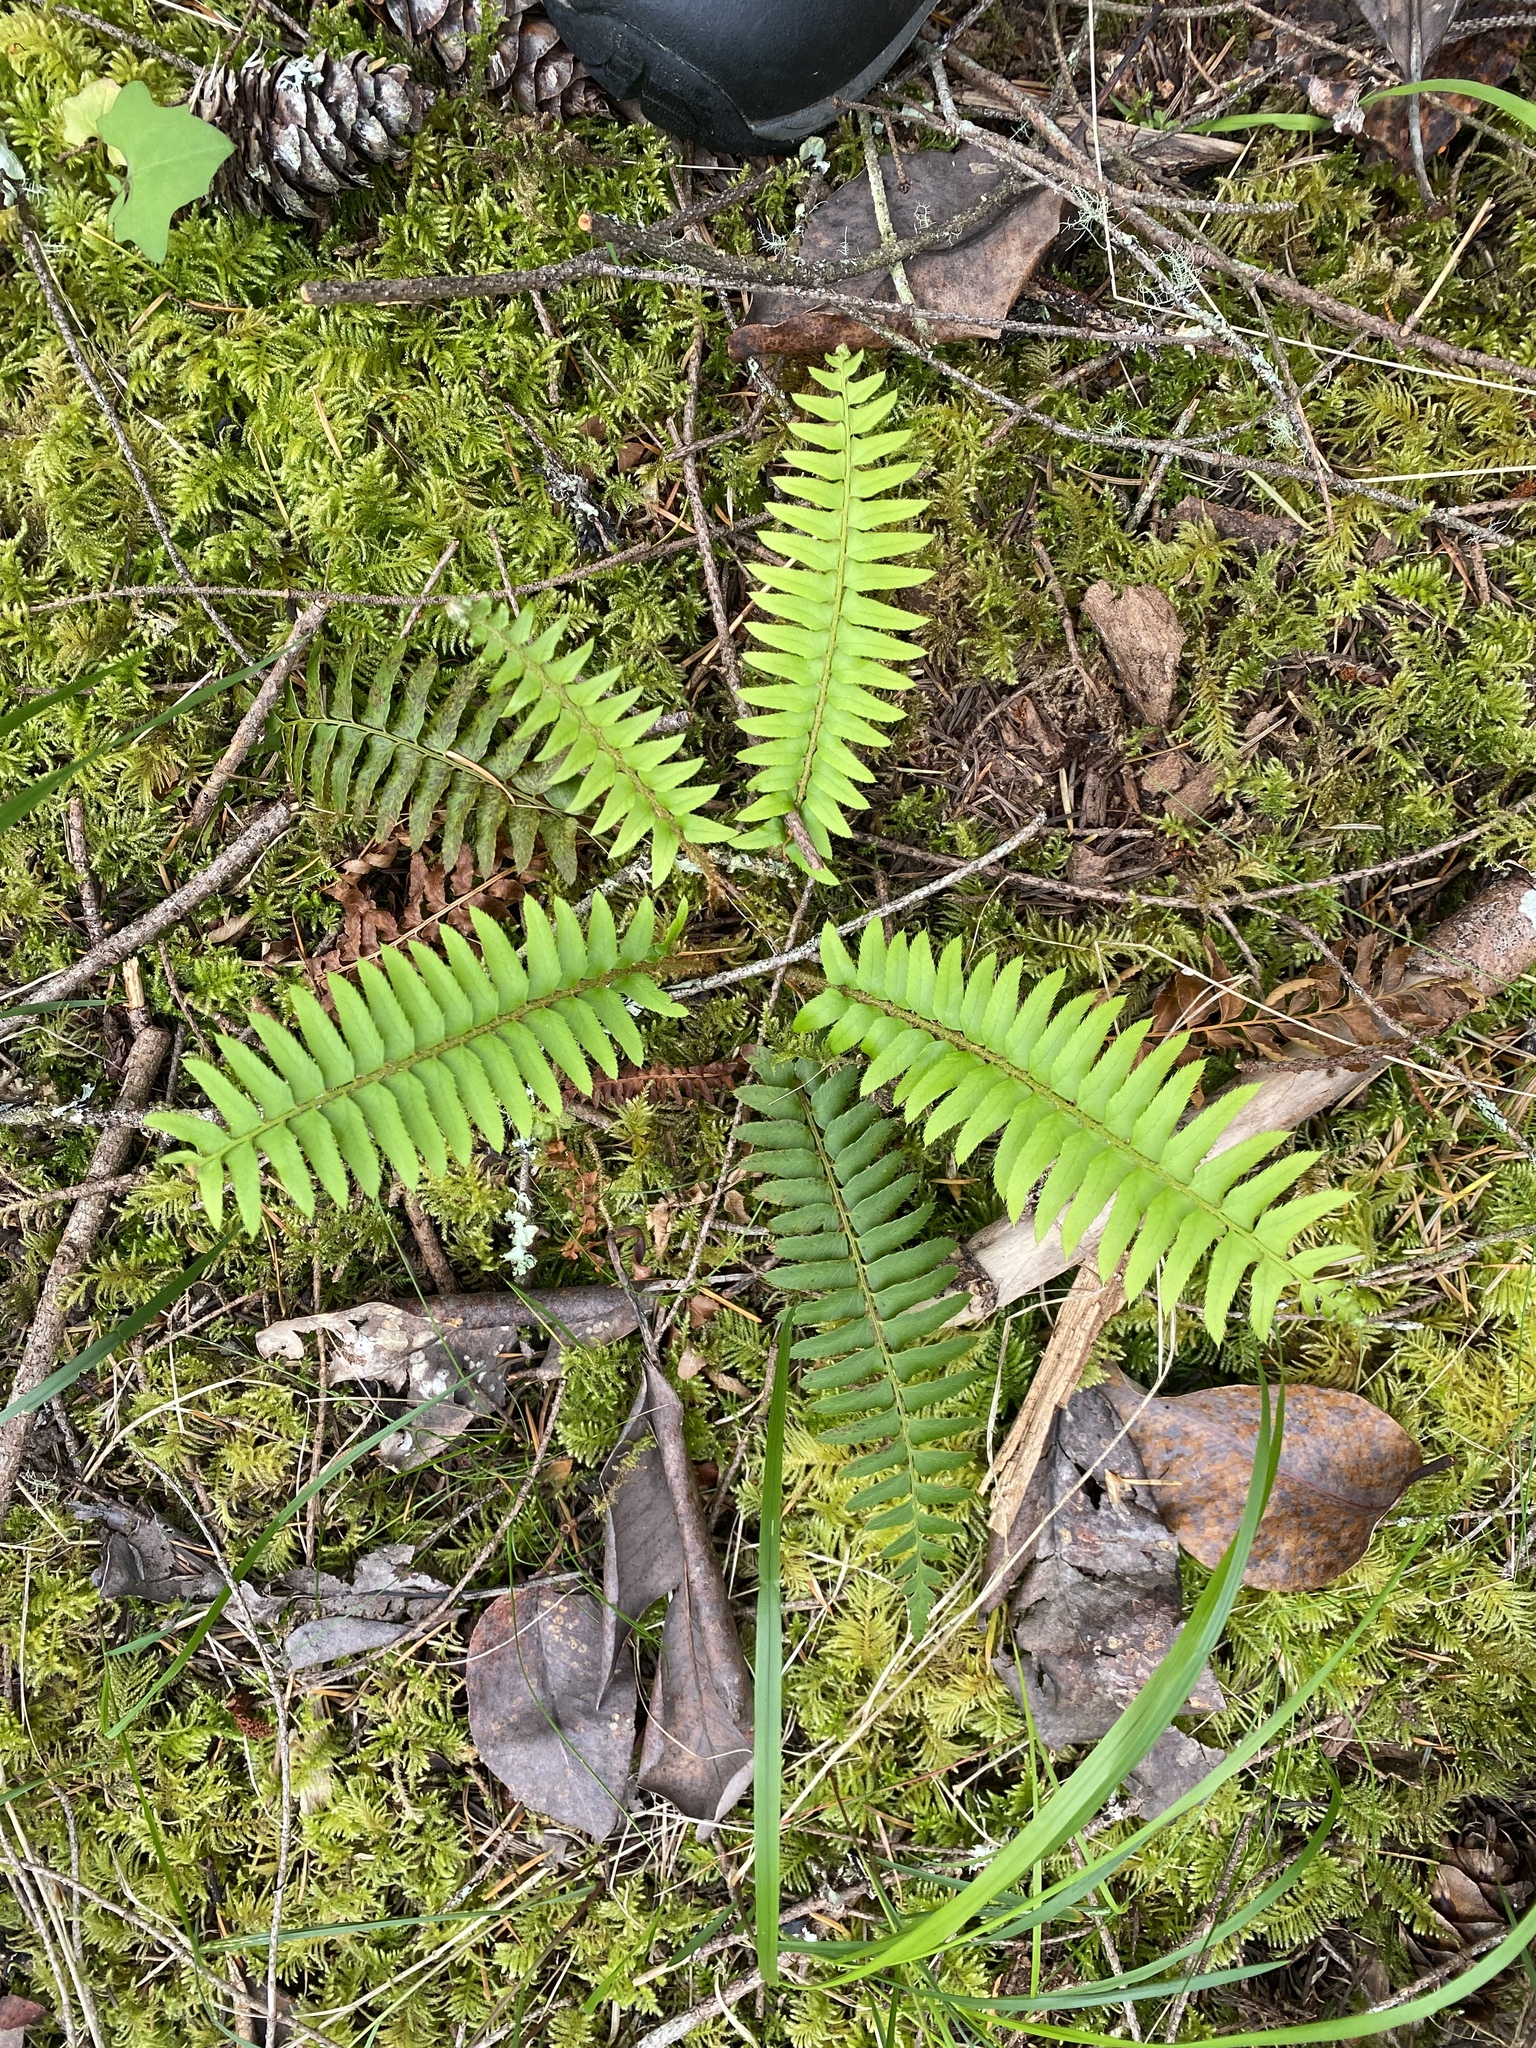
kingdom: Plantae
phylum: Tracheophyta
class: Polypodiopsida
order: Polypodiales
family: Dryopteridaceae
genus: Polystichum
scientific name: Polystichum munitum
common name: Western sword-fern
